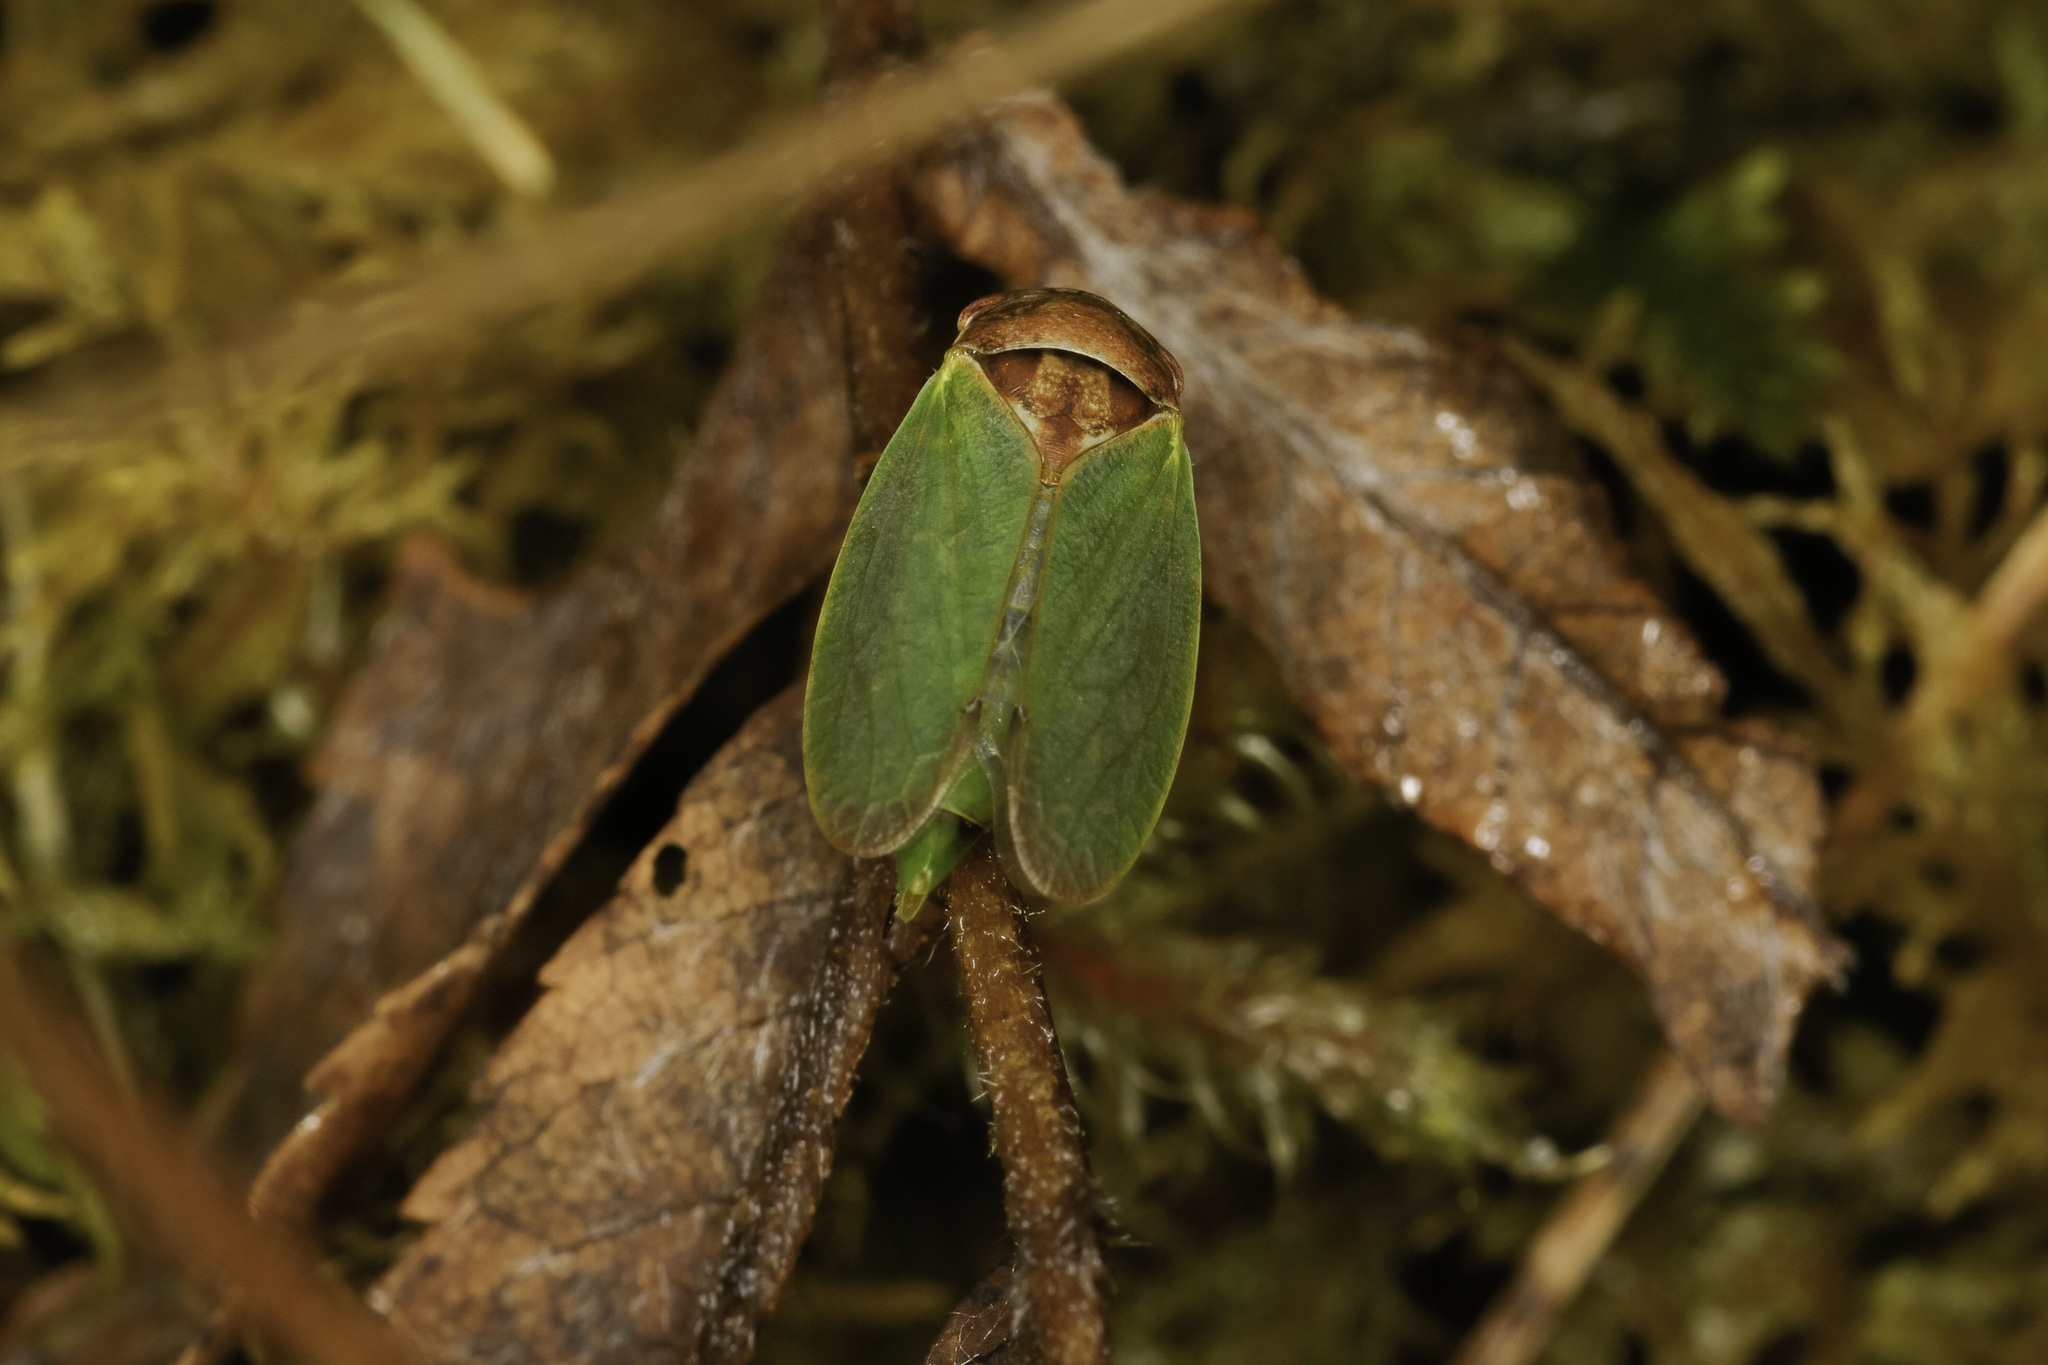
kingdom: Animalia
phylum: Arthropoda
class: Insecta
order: Hemiptera
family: Cicadellidae
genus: Iassus
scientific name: Iassus lanio
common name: Leafhopper
